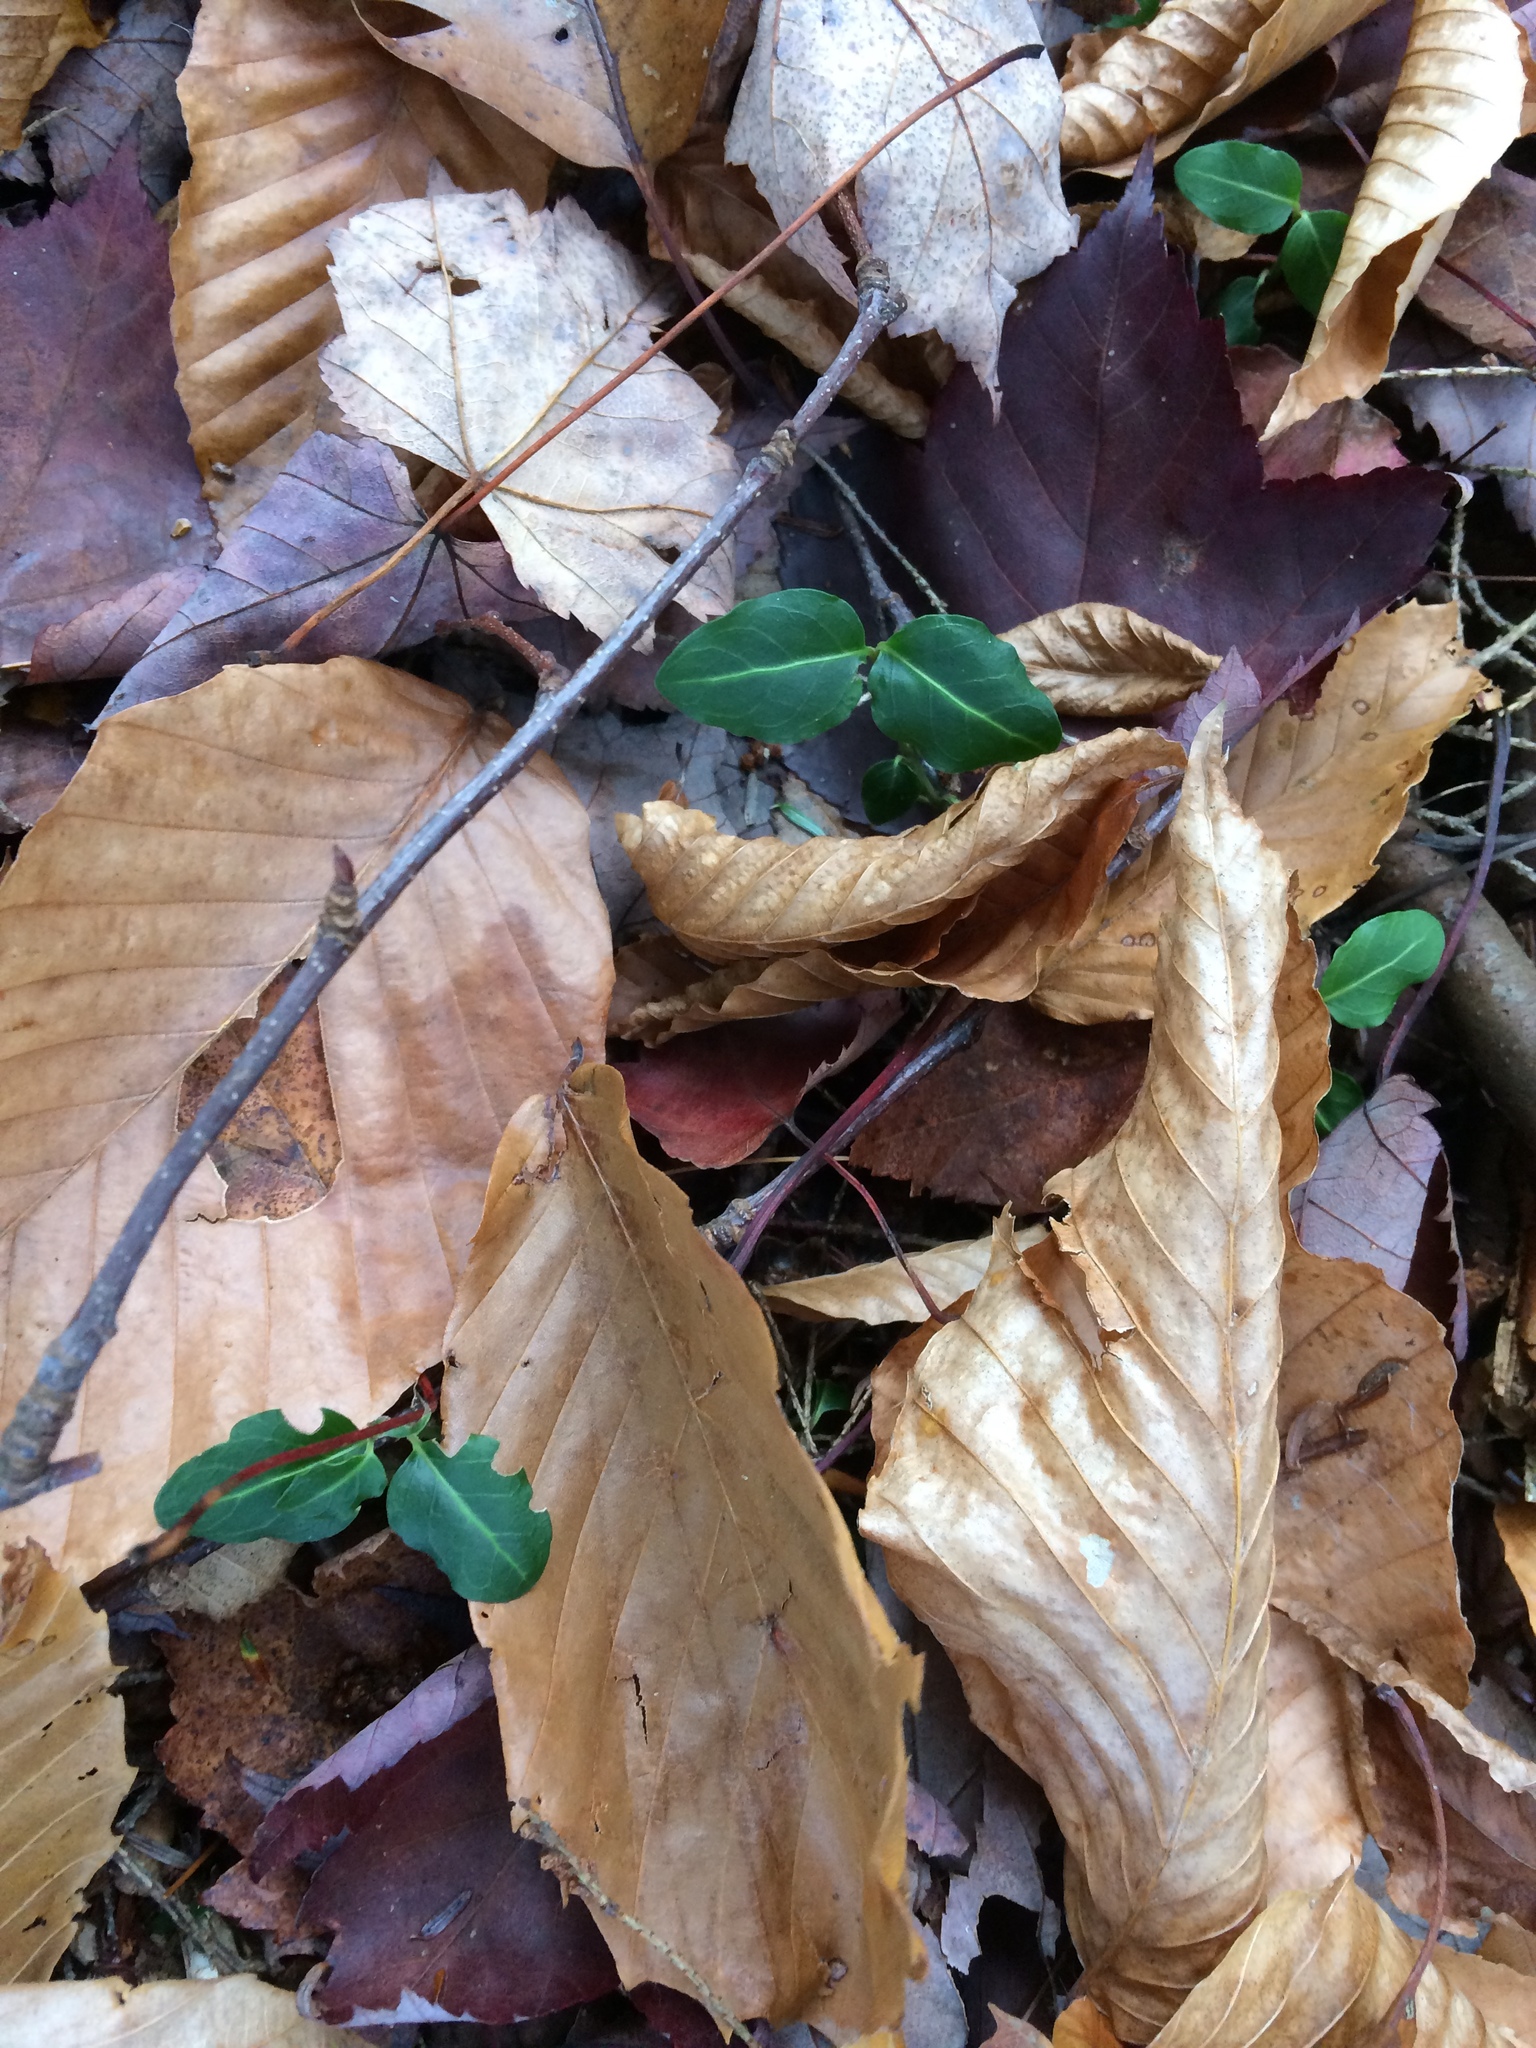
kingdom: Plantae
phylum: Tracheophyta
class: Magnoliopsida
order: Gentianales
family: Rubiaceae
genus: Mitchella
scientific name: Mitchella repens
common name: Partridge-berry
